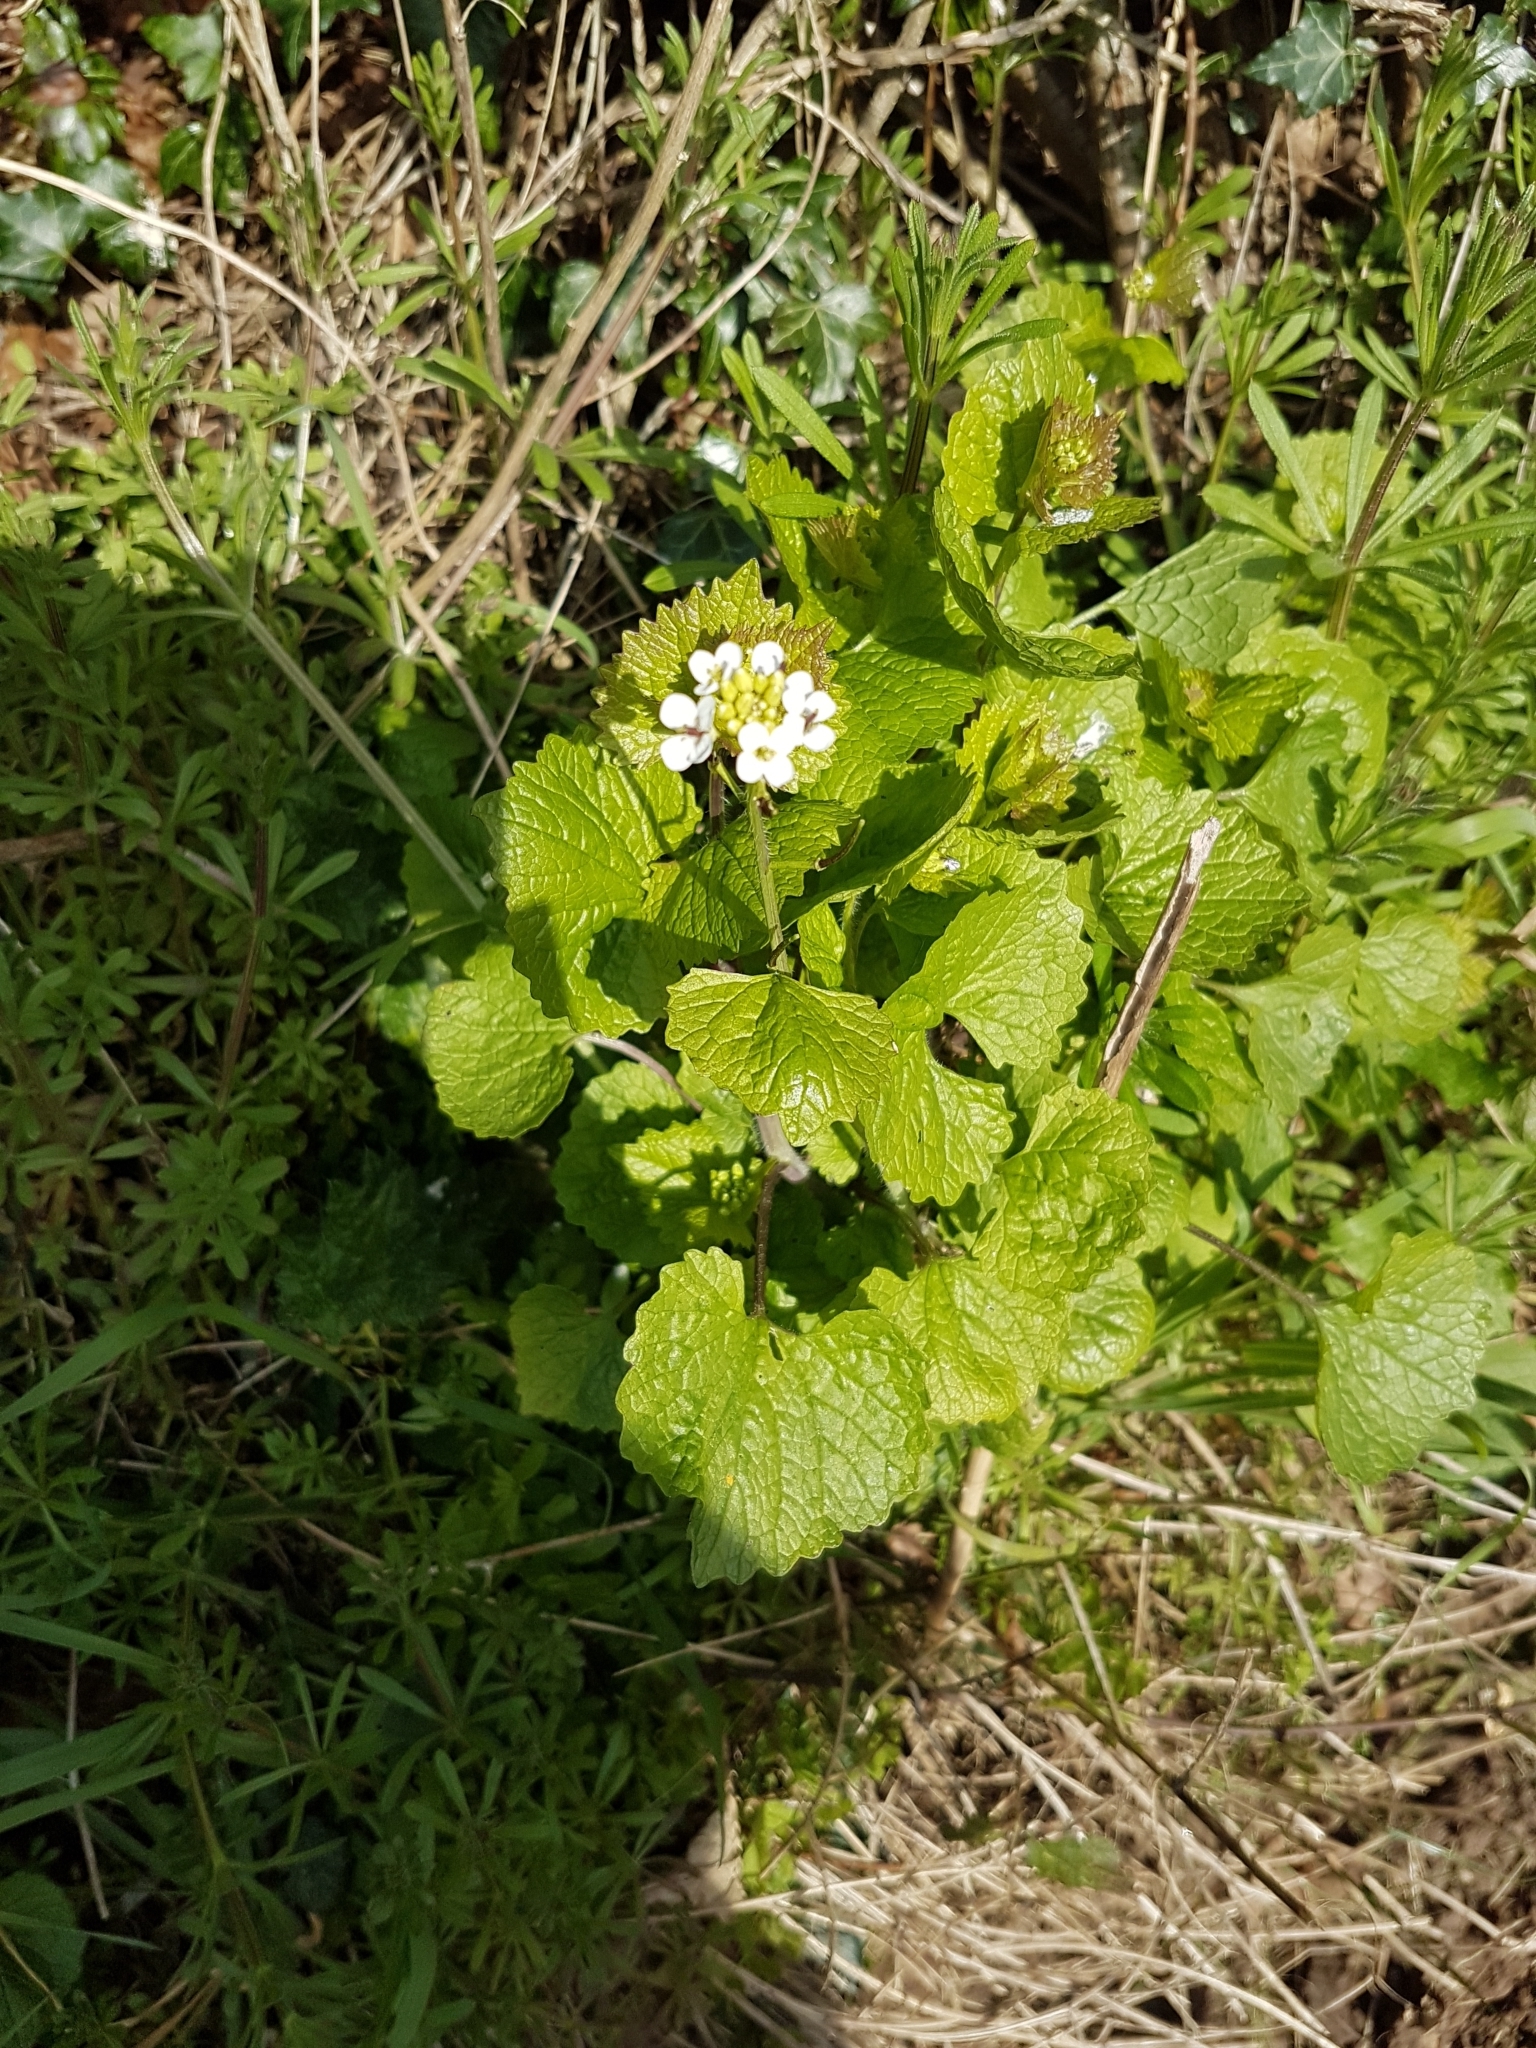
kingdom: Plantae
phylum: Tracheophyta
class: Magnoliopsida
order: Brassicales
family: Brassicaceae
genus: Alliaria
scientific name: Alliaria petiolata
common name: Garlic mustard
